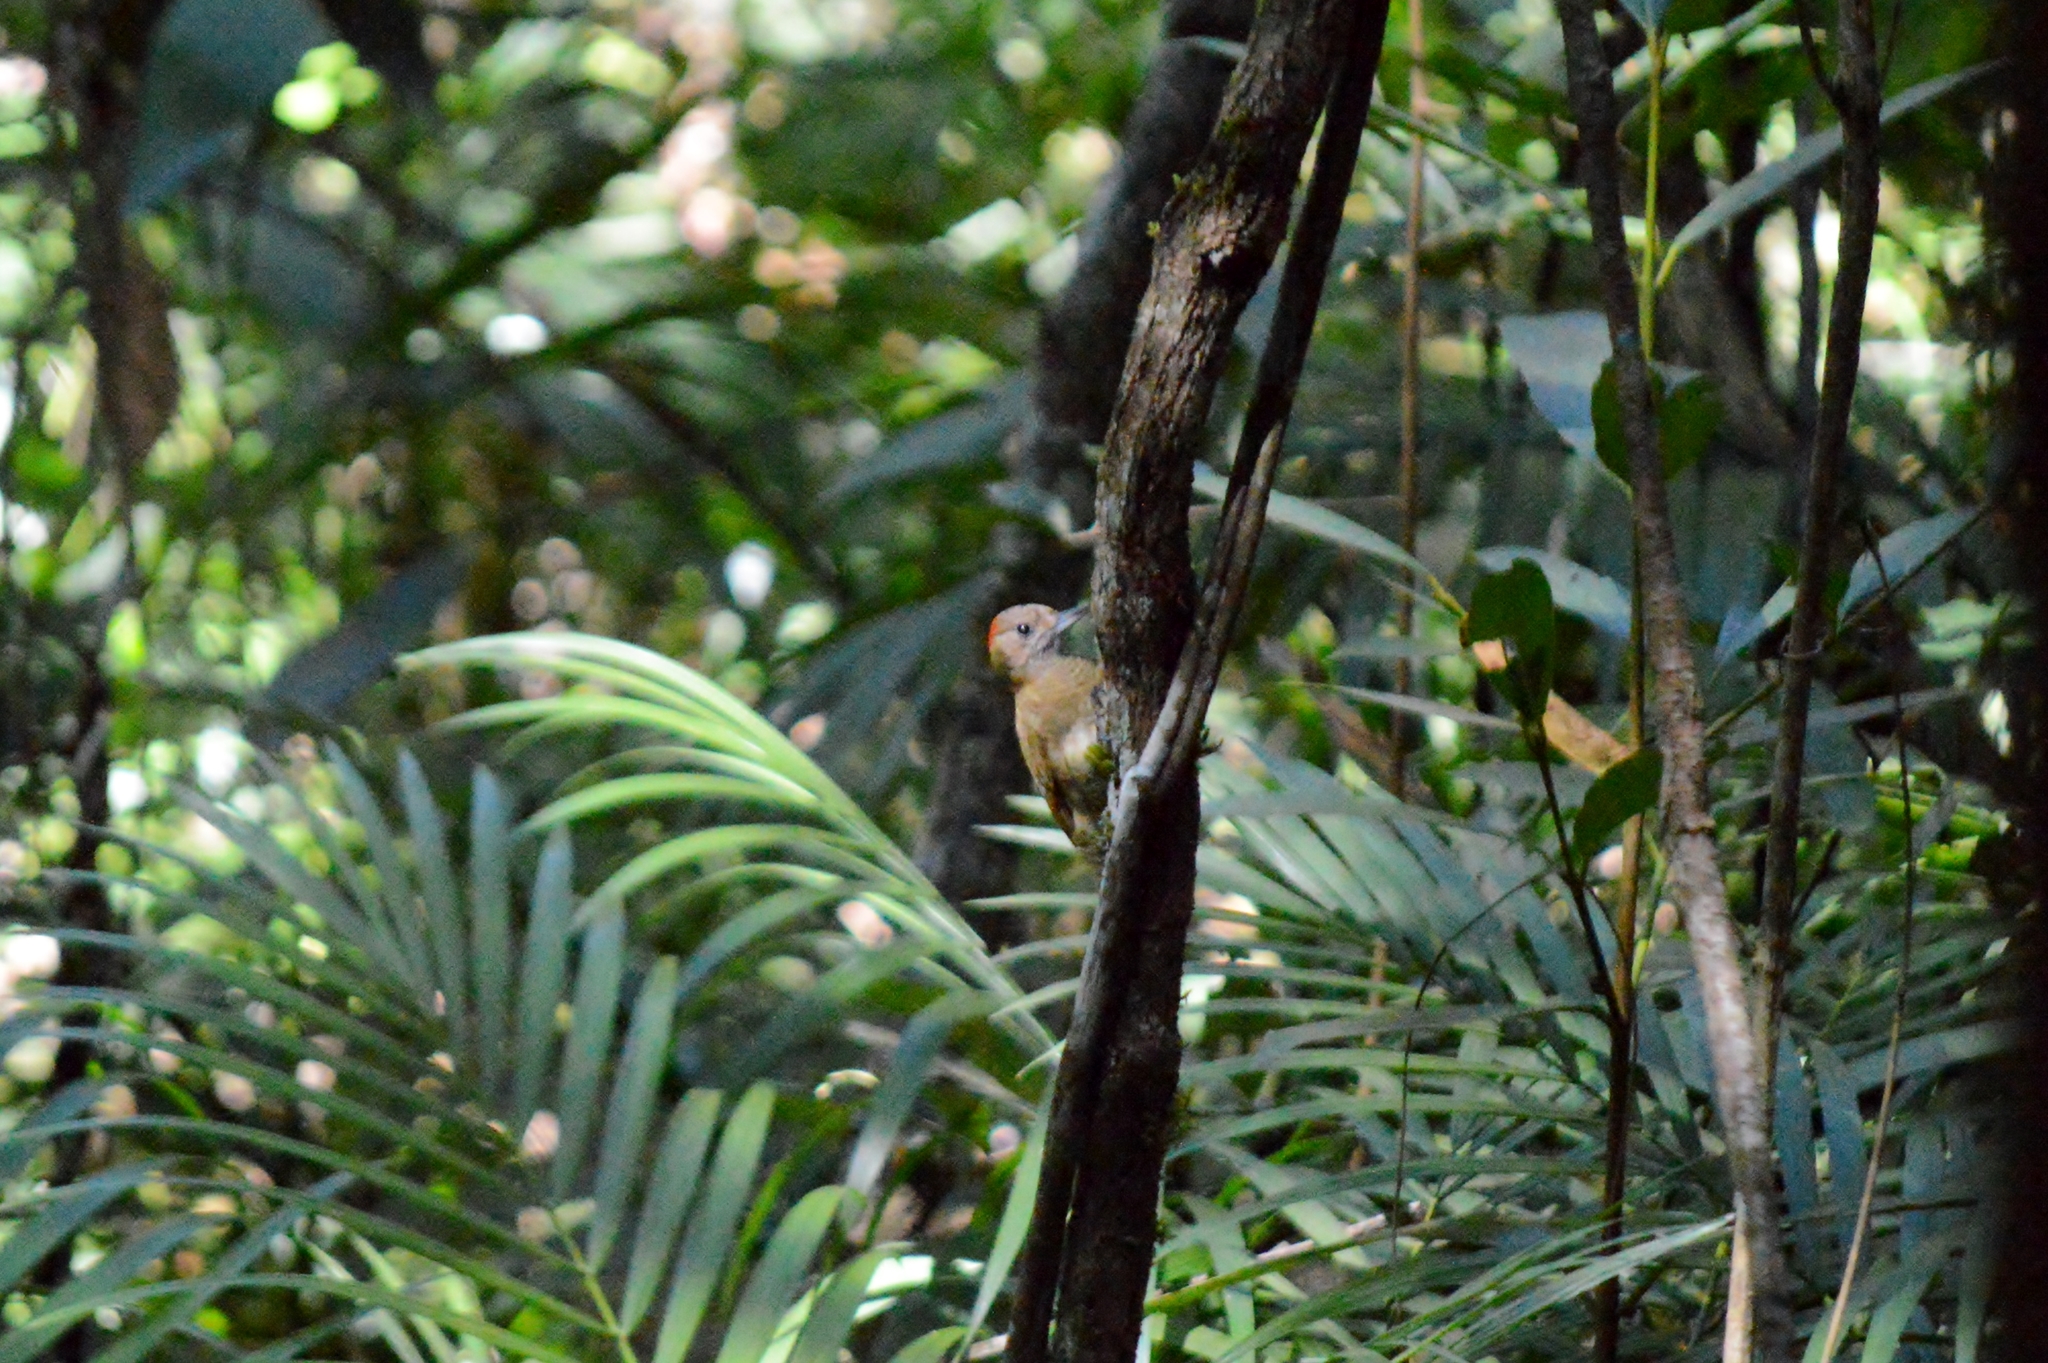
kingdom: Animalia
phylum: Chordata
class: Aves
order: Piciformes
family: Picidae
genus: Veniliornis
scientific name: Veniliornis passerinus
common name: Little woodpecker
